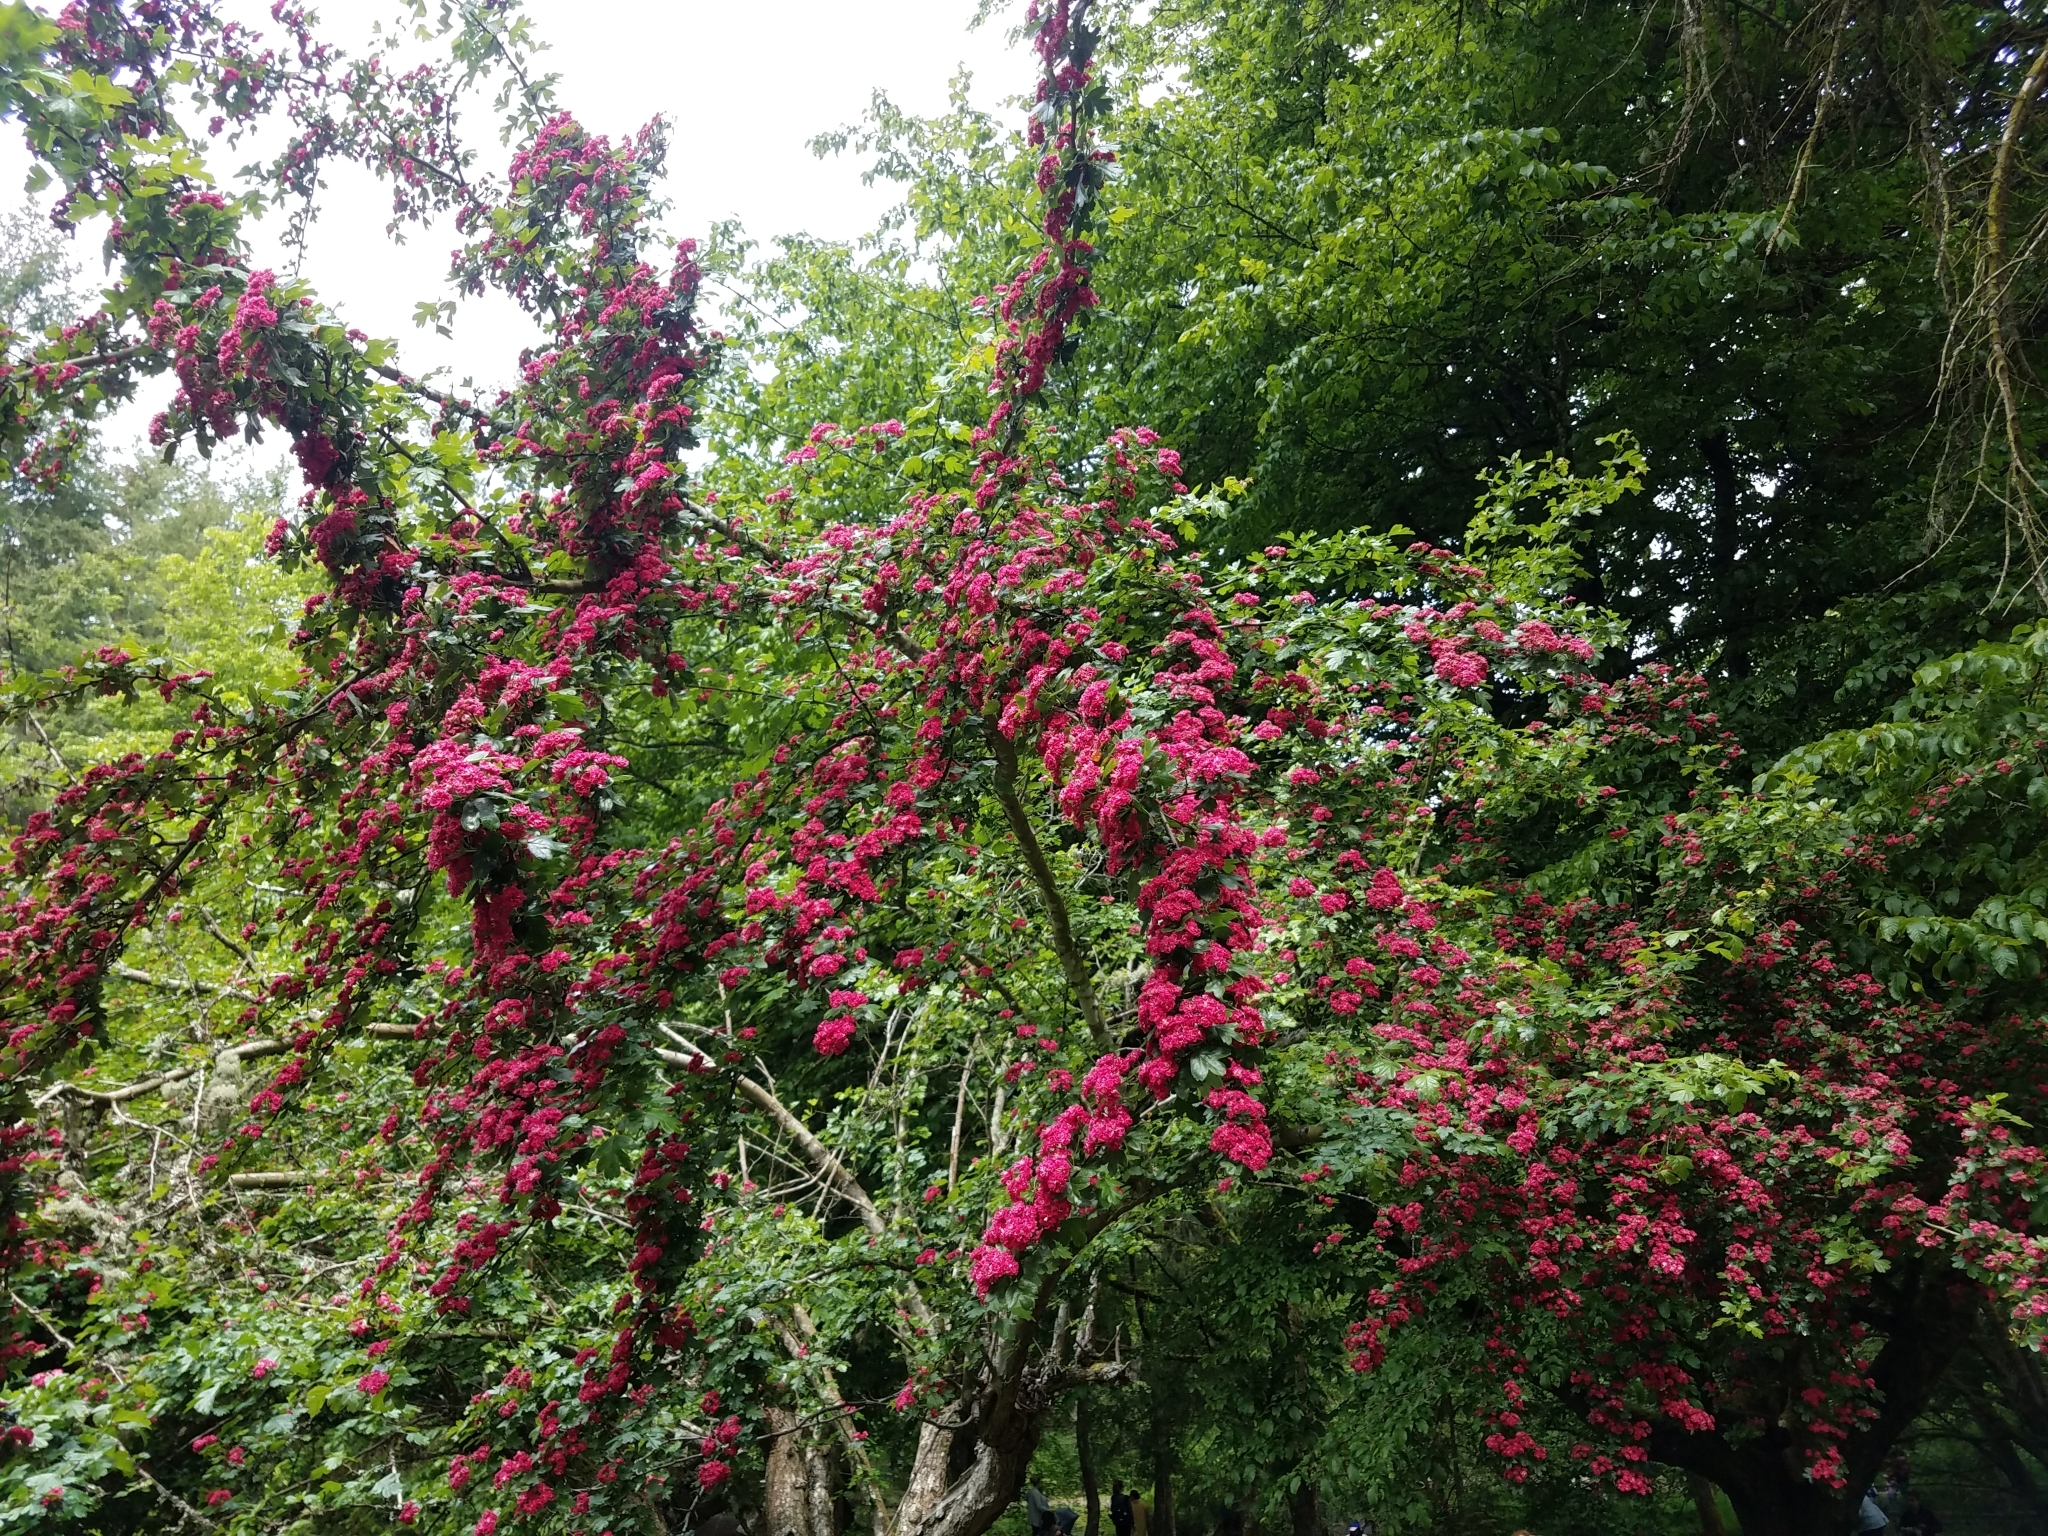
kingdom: Plantae
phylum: Tracheophyta
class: Magnoliopsida
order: Rosales
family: Rosaceae
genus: Crataegus
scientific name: Crataegus laevigata
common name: Midland hawthorn
